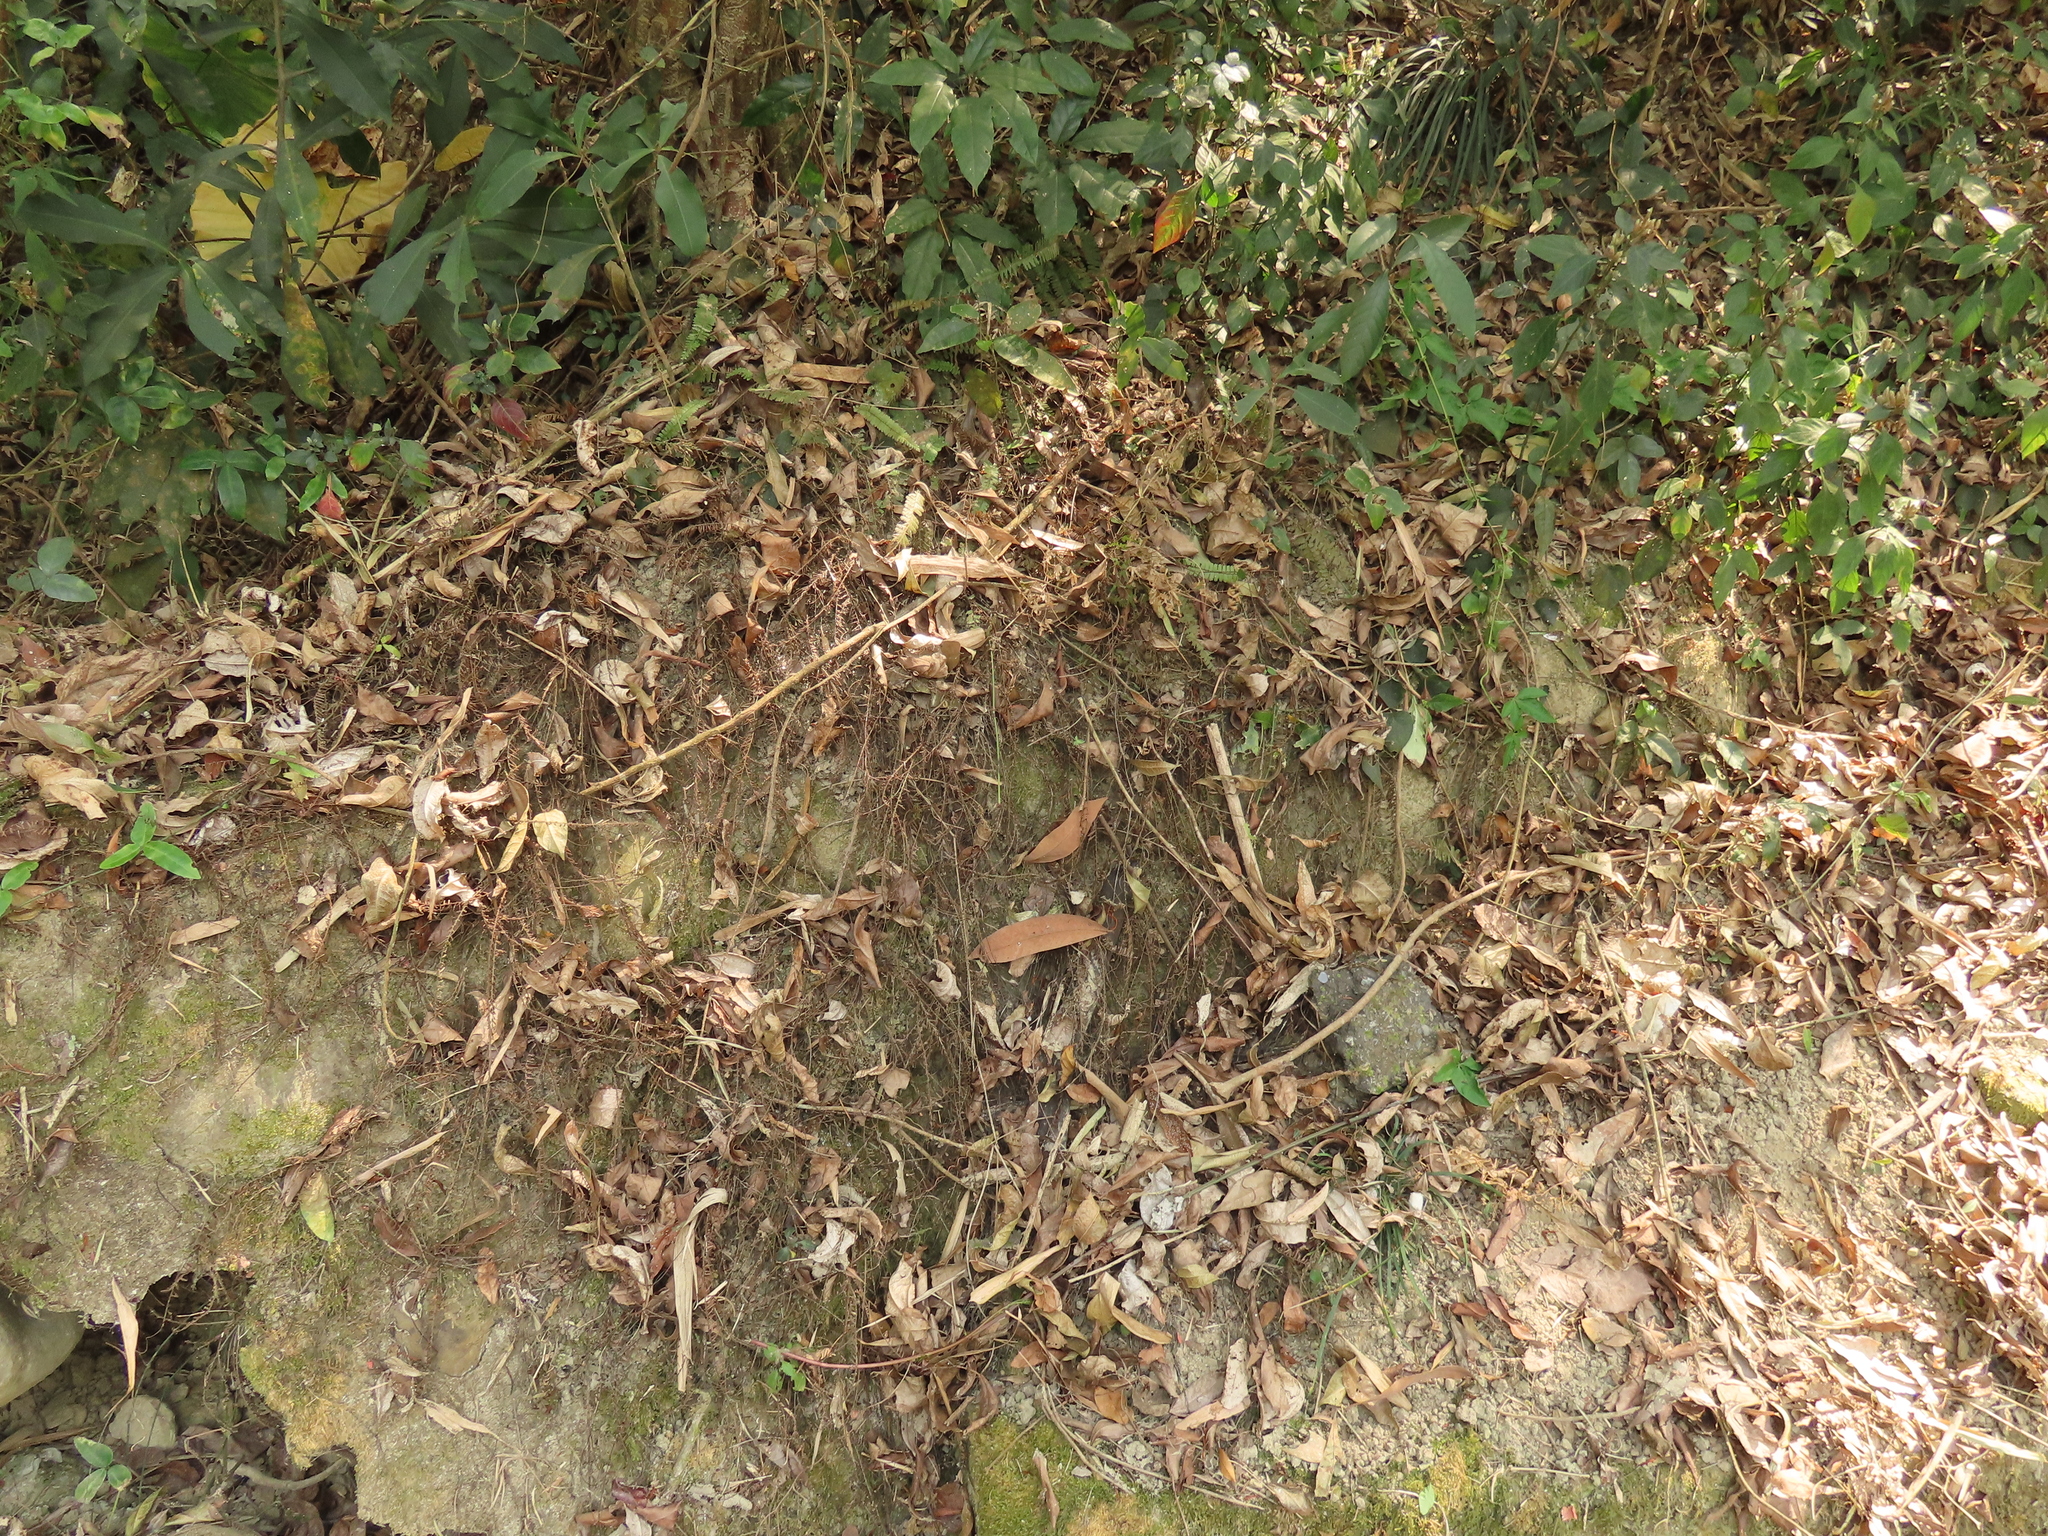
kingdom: Plantae
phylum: Tracheophyta
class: Polypodiopsida
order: Polypodiales
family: Pteridaceae
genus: Adiantum
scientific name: Adiantum caudatum
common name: Tailed maidenhair
